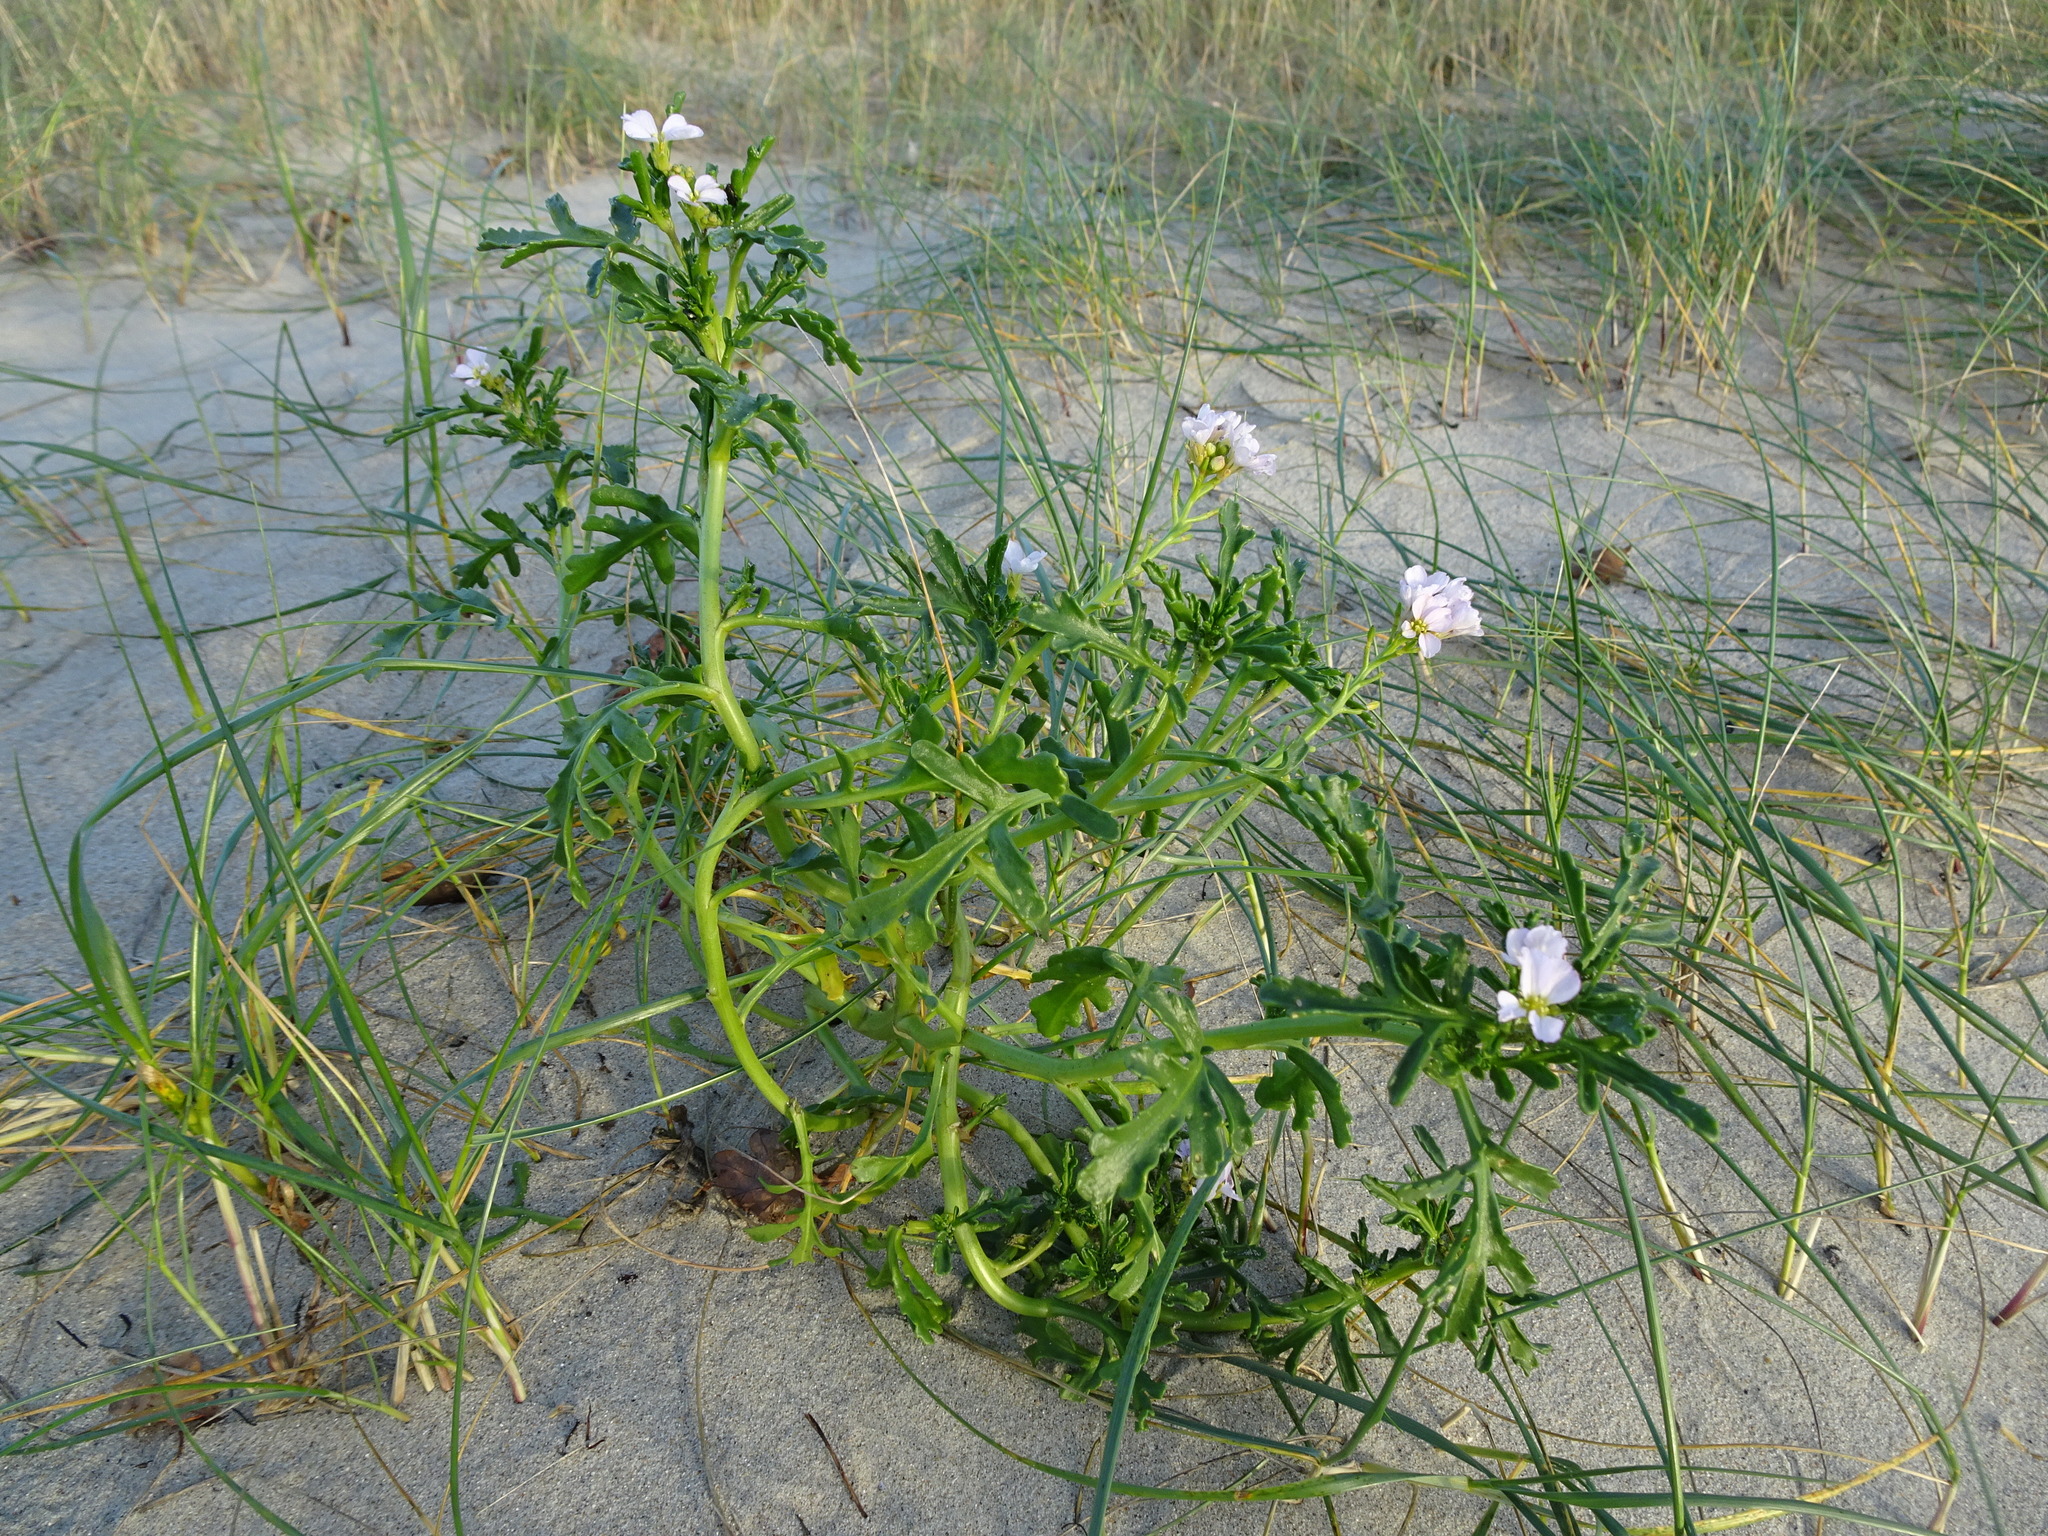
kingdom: Plantae
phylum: Tracheophyta
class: Magnoliopsida
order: Brassicales
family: Brassicaceae
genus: Cakile
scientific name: Cakile maritima
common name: Sea rocket
